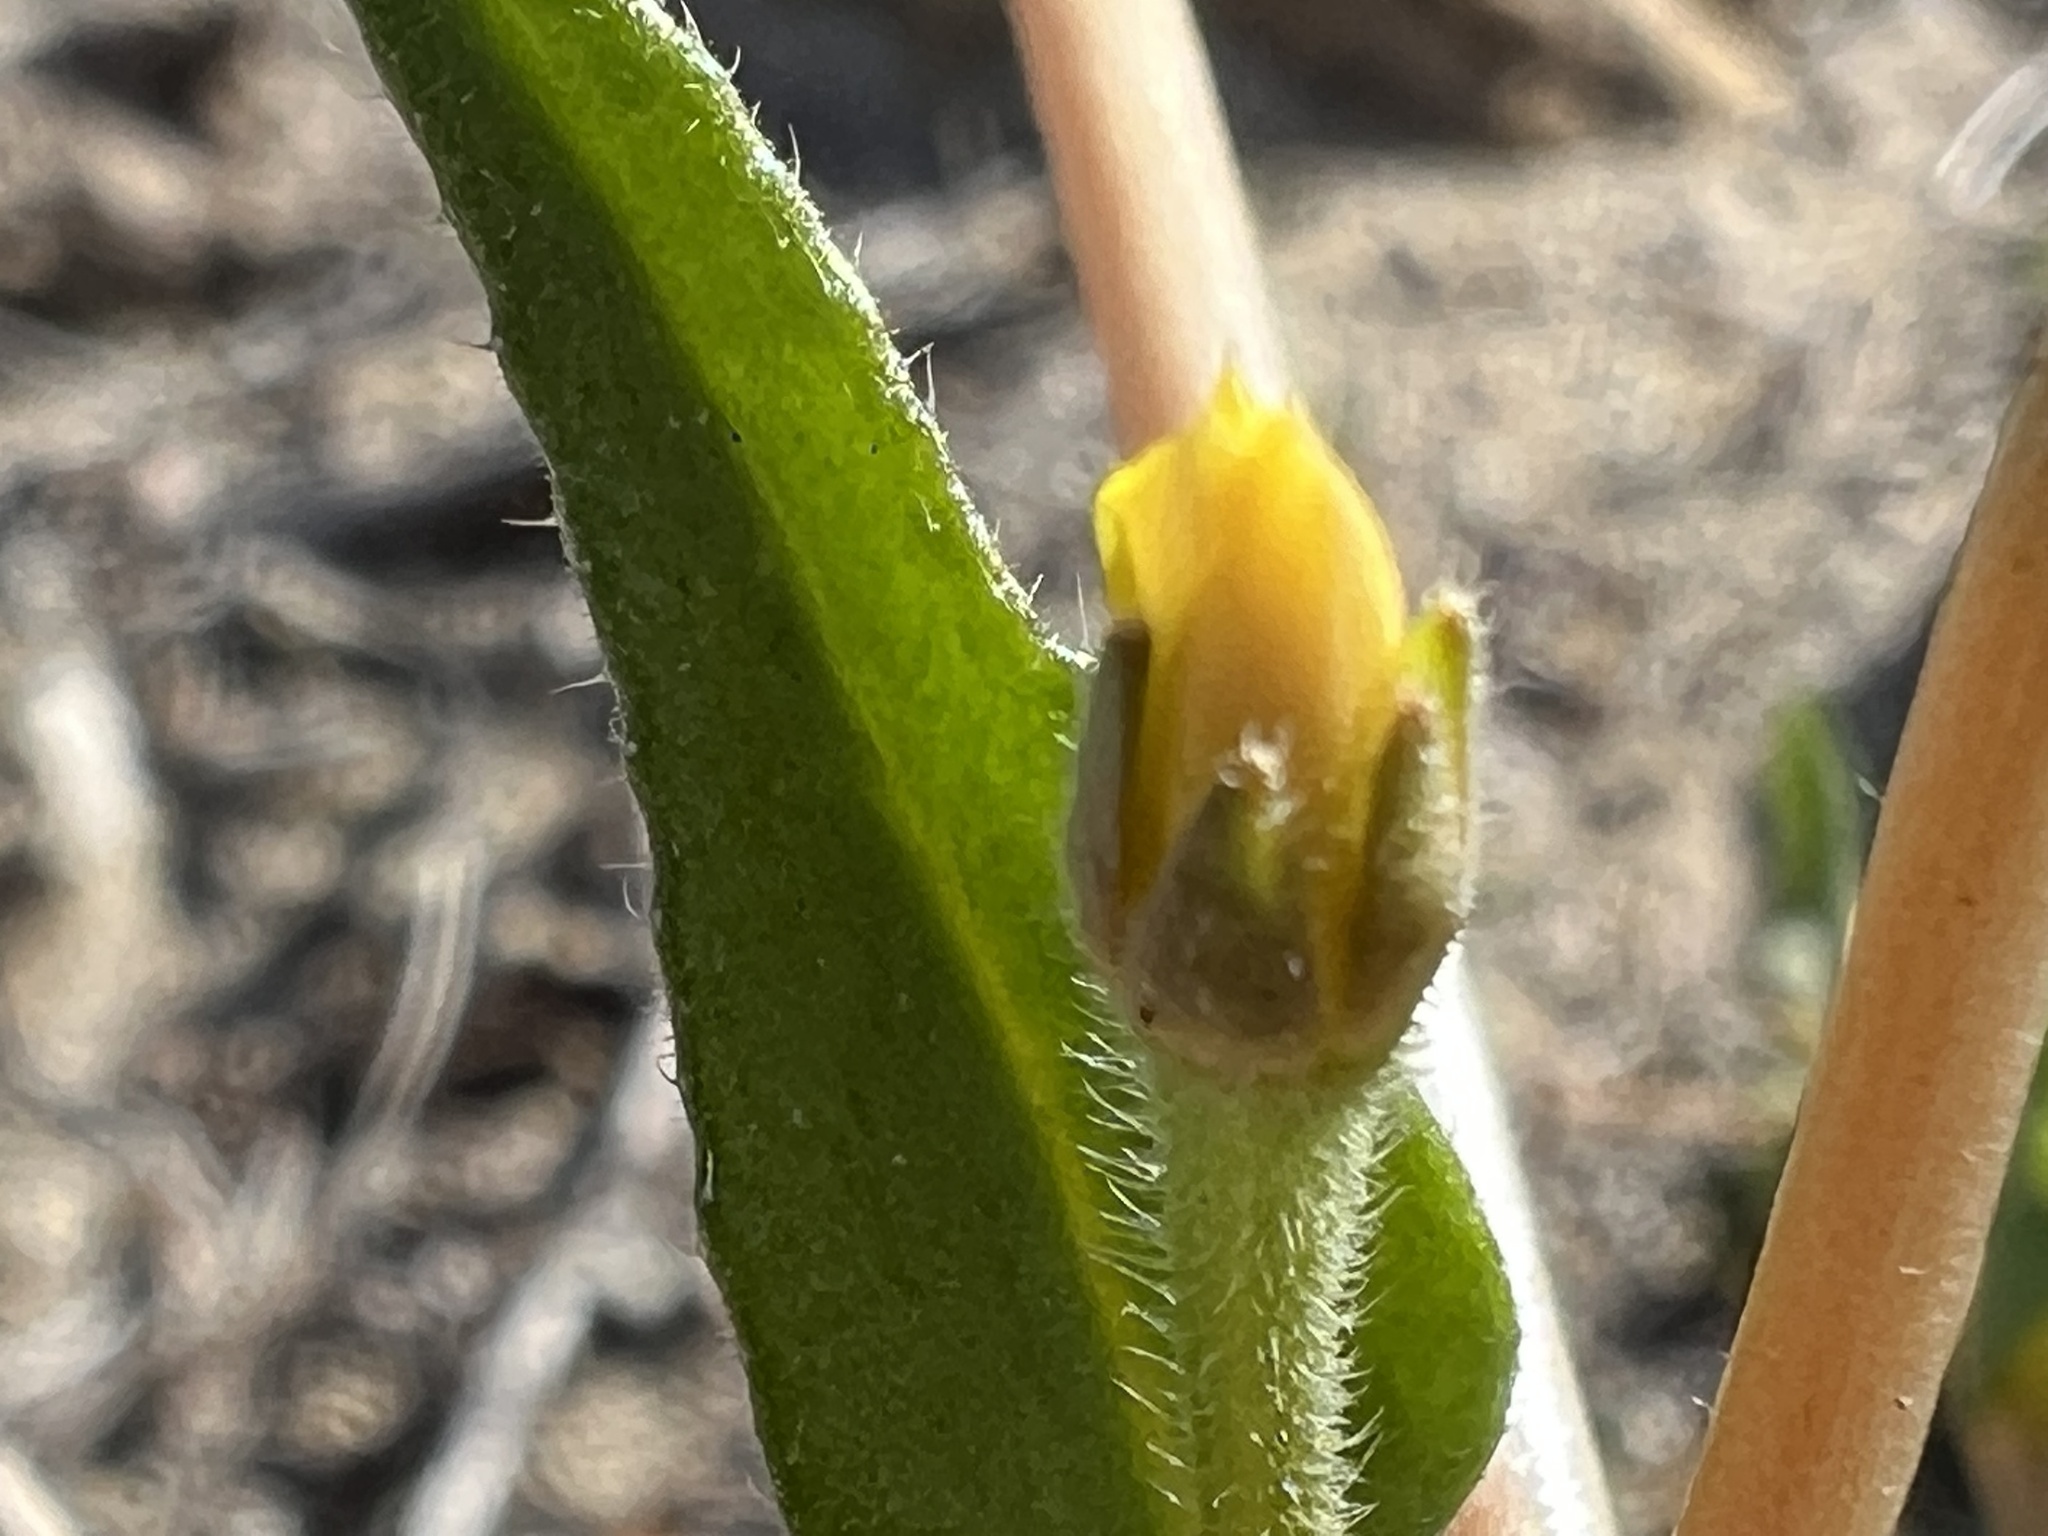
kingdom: Plantae
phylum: Tracheophyta
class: Magnoliopsida
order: Cornales
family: Loasaceae
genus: Mentzelia
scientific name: Mentzelia albicaulis
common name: White-stem blazingstar
